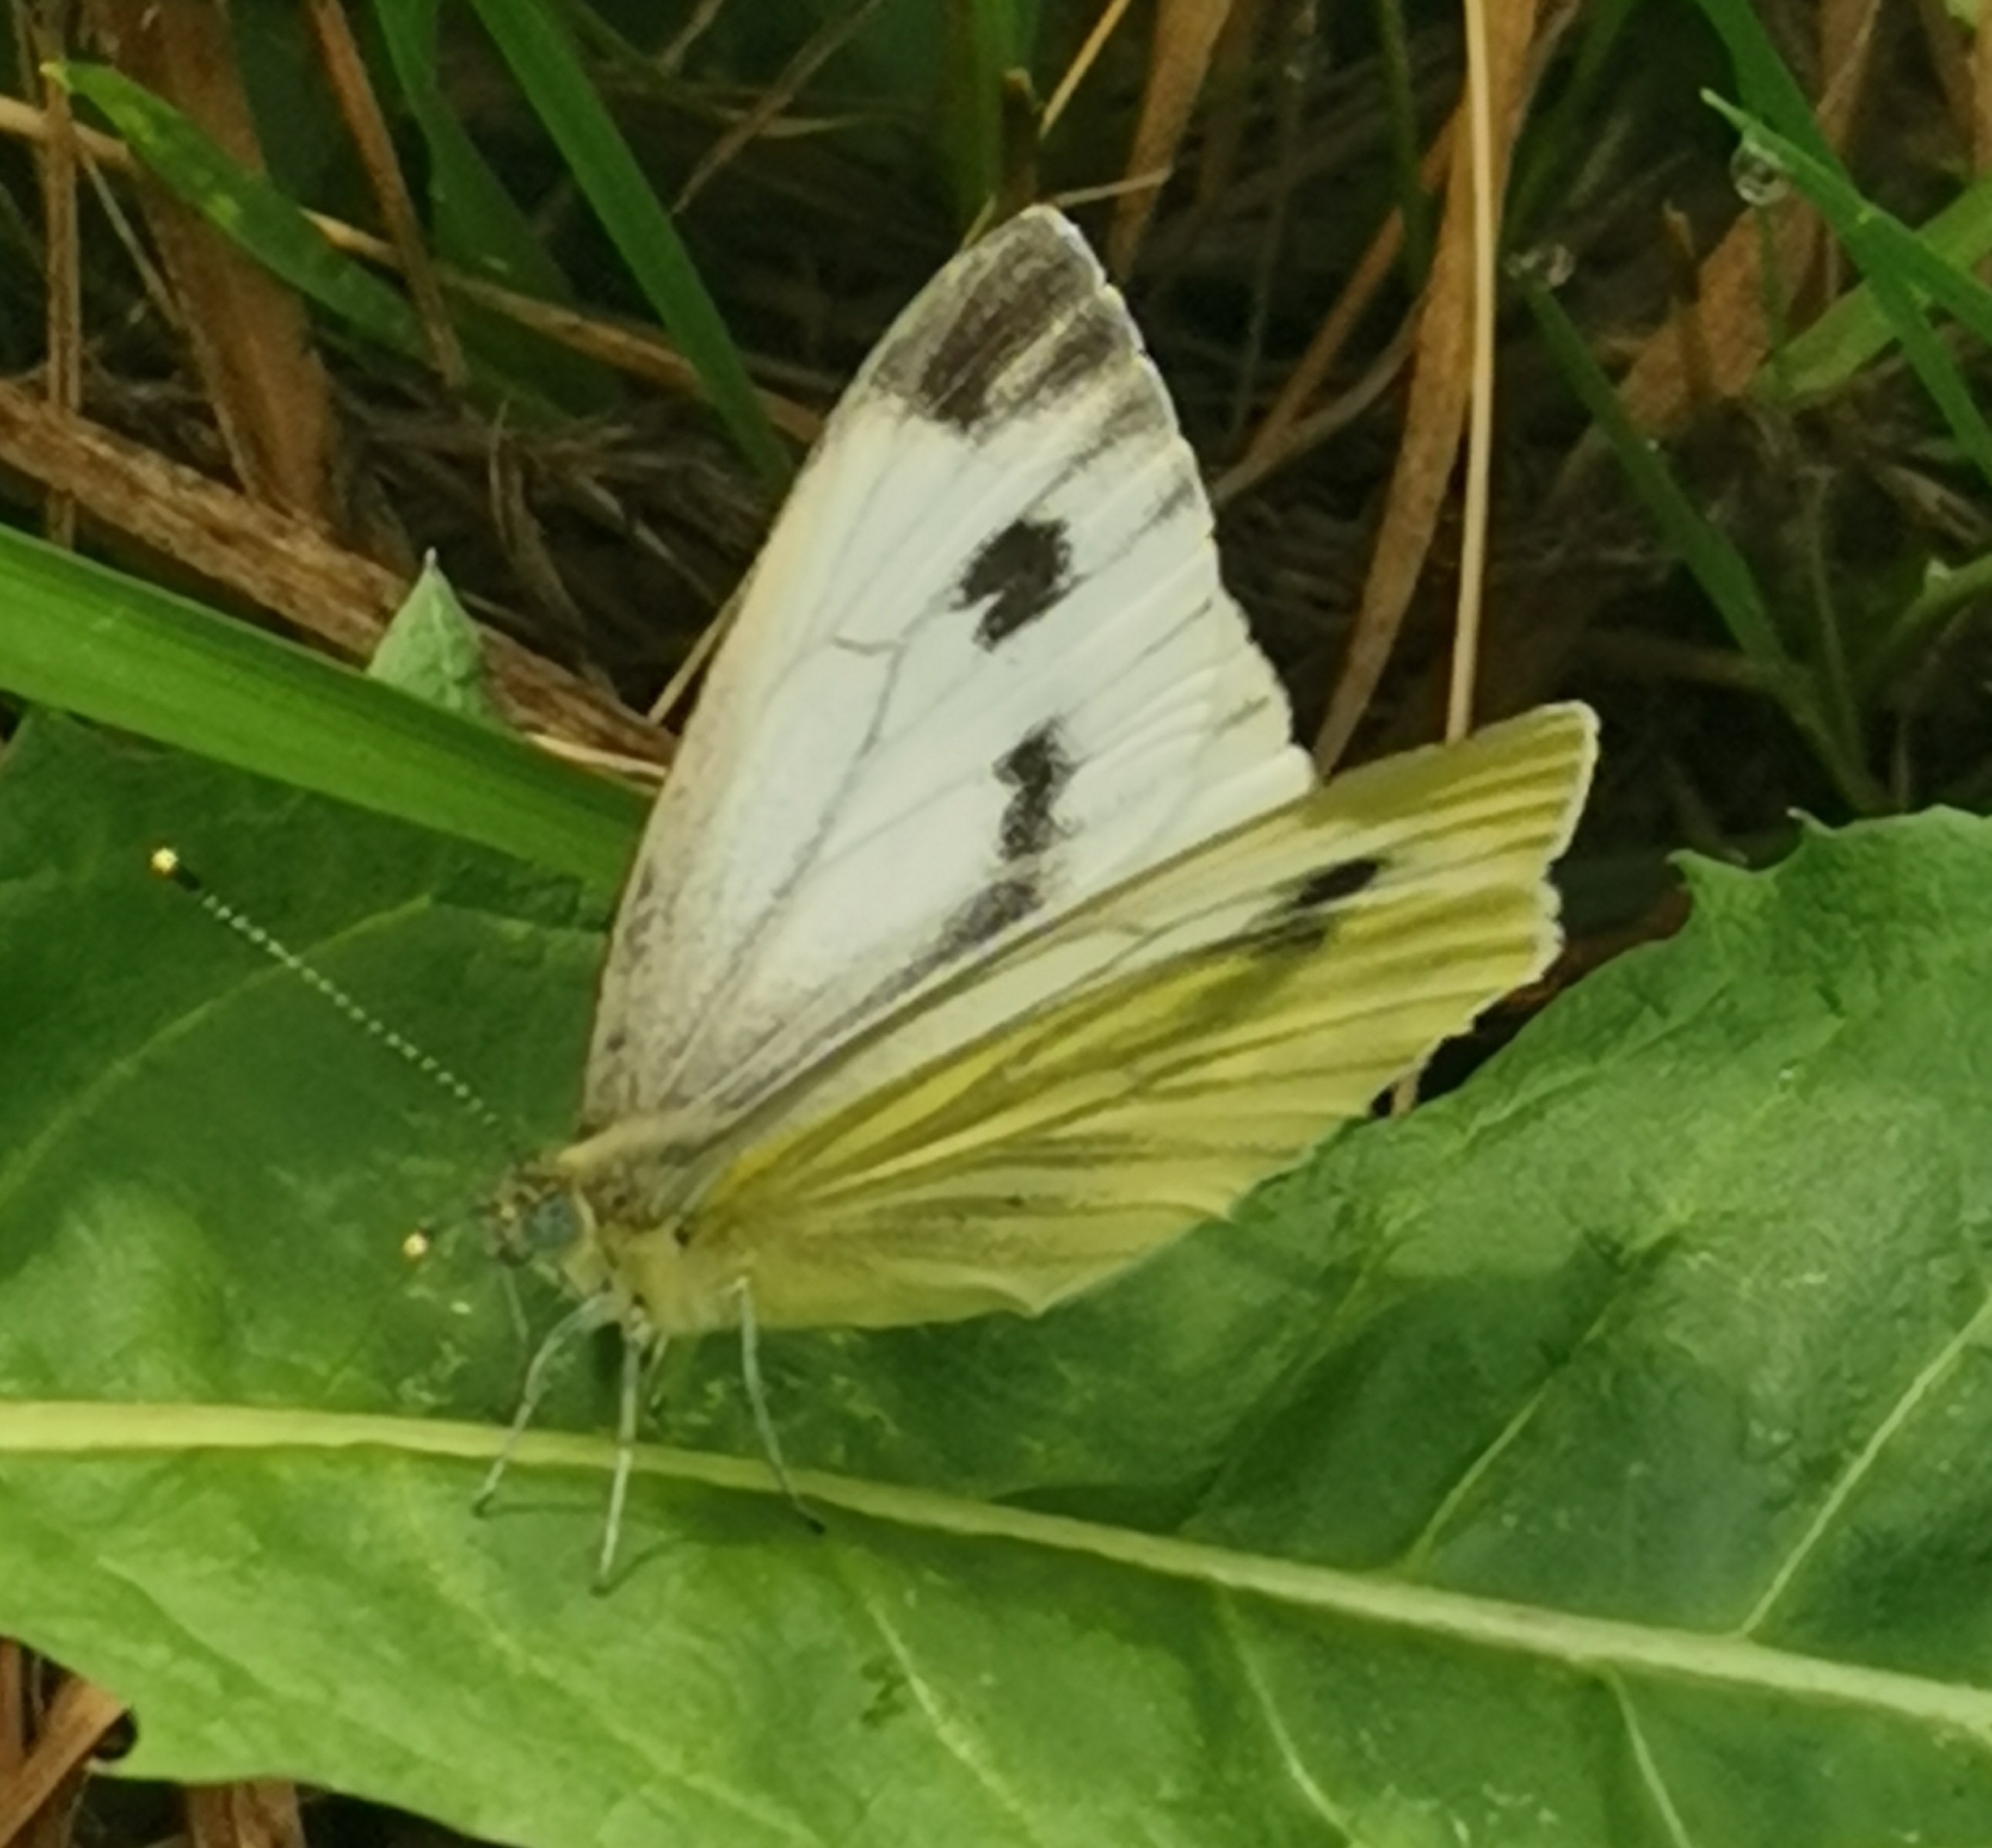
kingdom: Animalia
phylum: Arthropoda
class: Insecta
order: Lepidoptera
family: Pieridae
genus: Pieris
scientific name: Pieris napi
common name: Green-veined white
